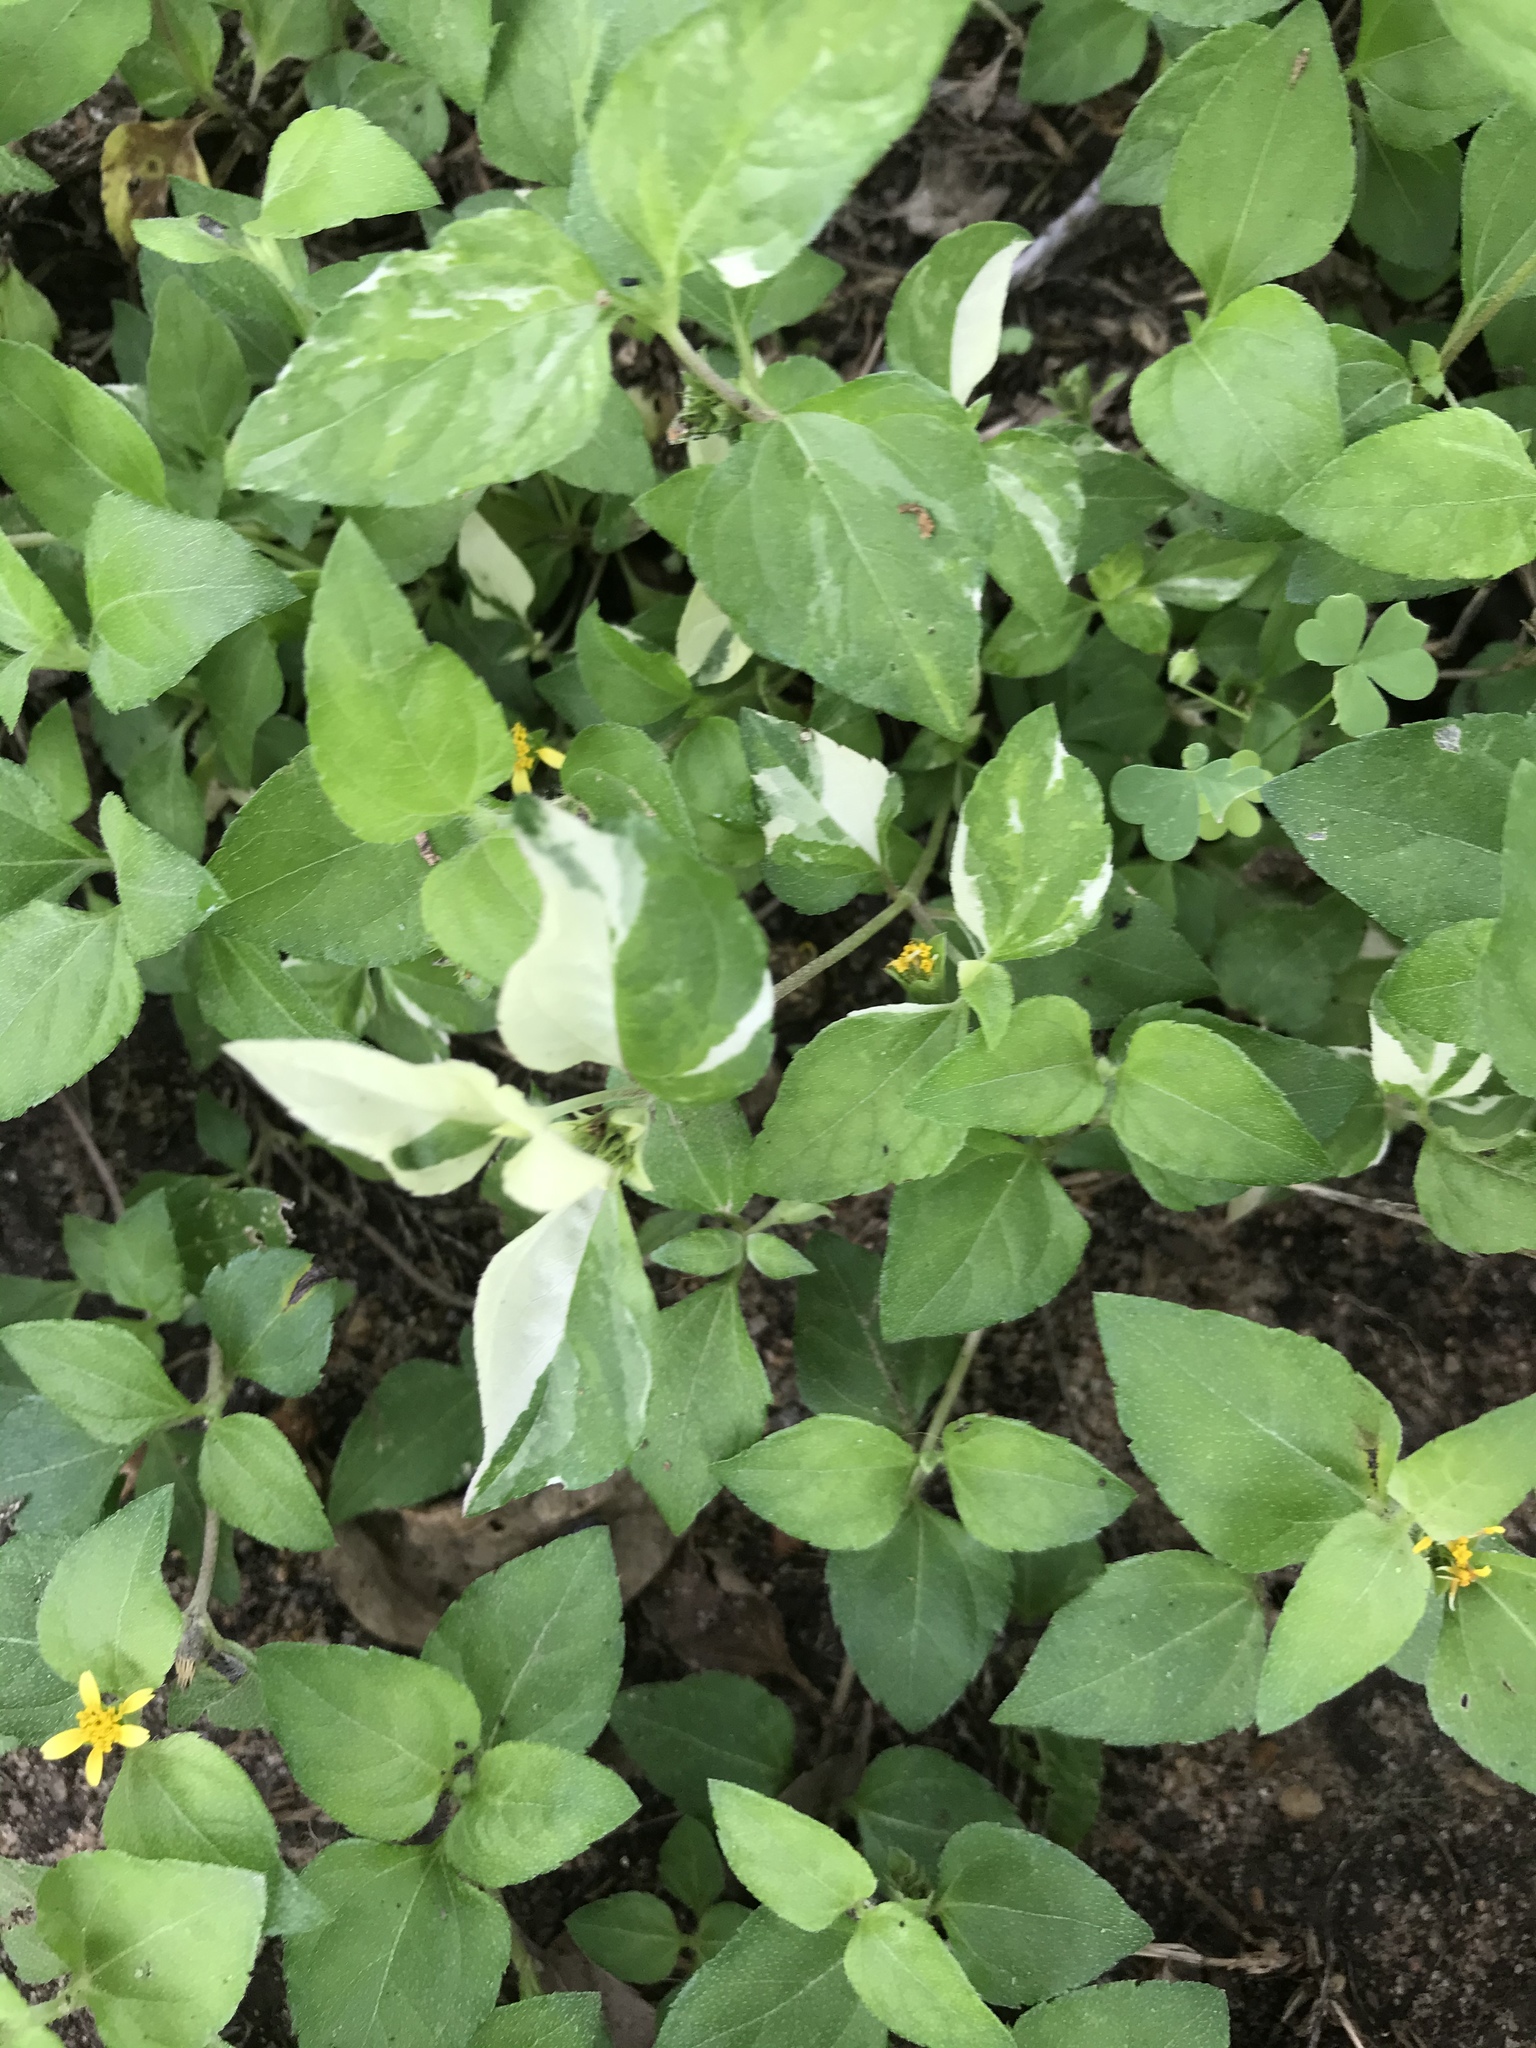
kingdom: Plantae
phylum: Tracheophyta
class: Magnoliopsida
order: Asterales
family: Asteraceae
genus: Calyptocarpus
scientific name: Calyptocarpus vialis
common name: Straggler daisy
